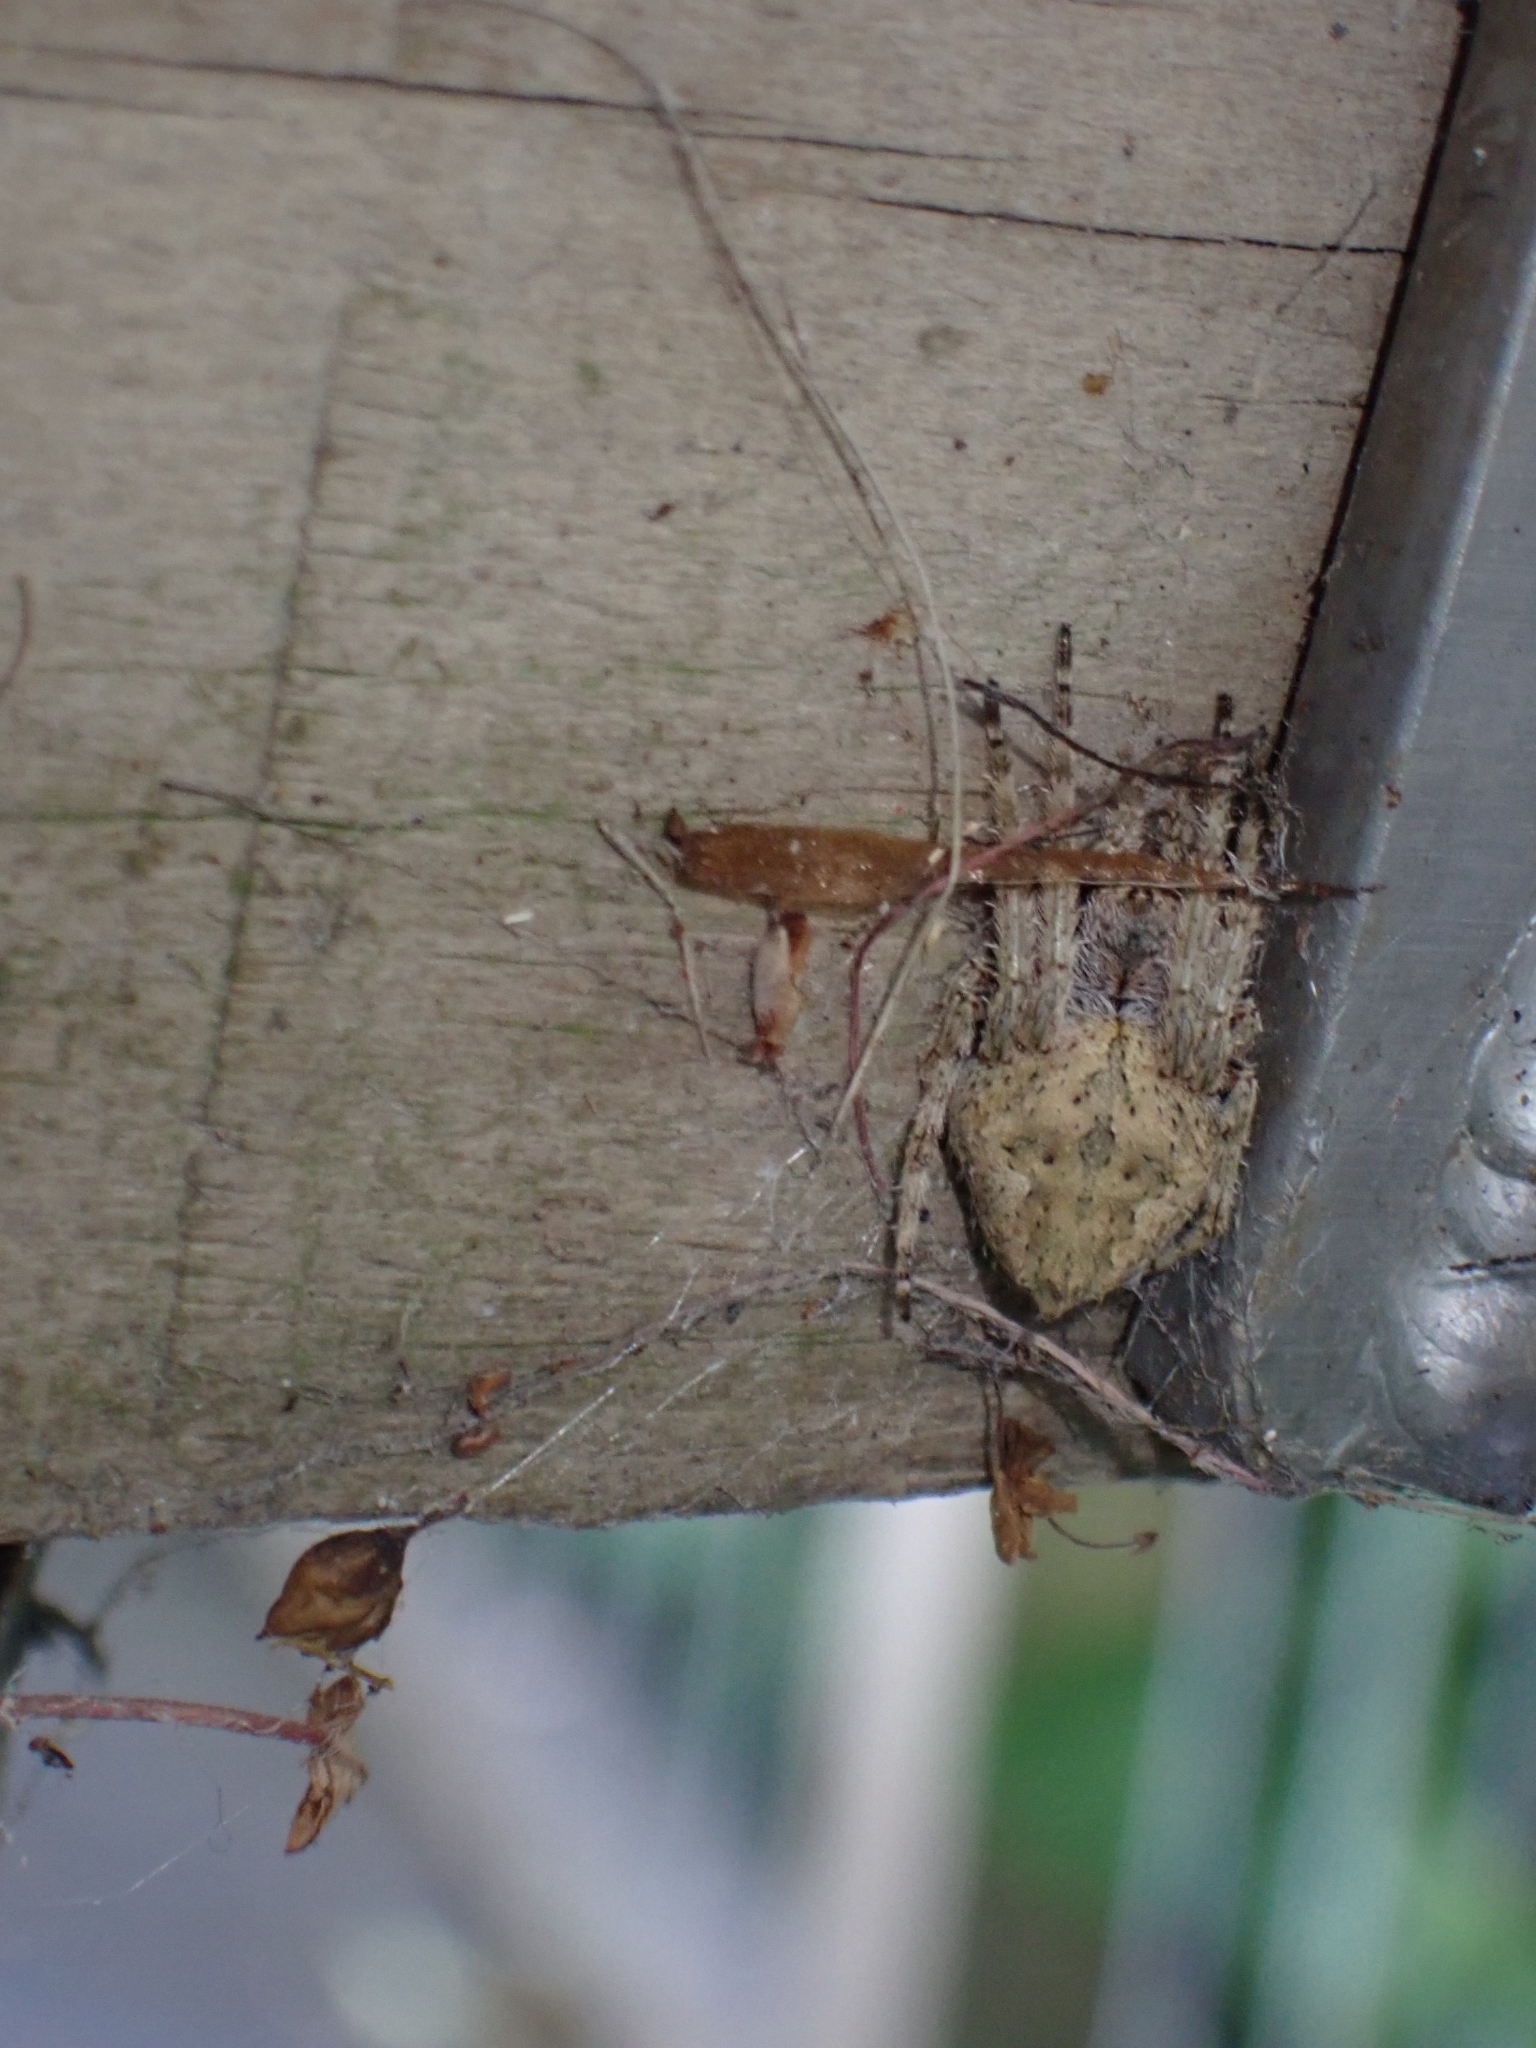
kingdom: Animalia
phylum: Arthropoda
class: Arachnida
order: Araneae
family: Araneidae
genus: Eriophora
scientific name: Eriophora pustulosa
